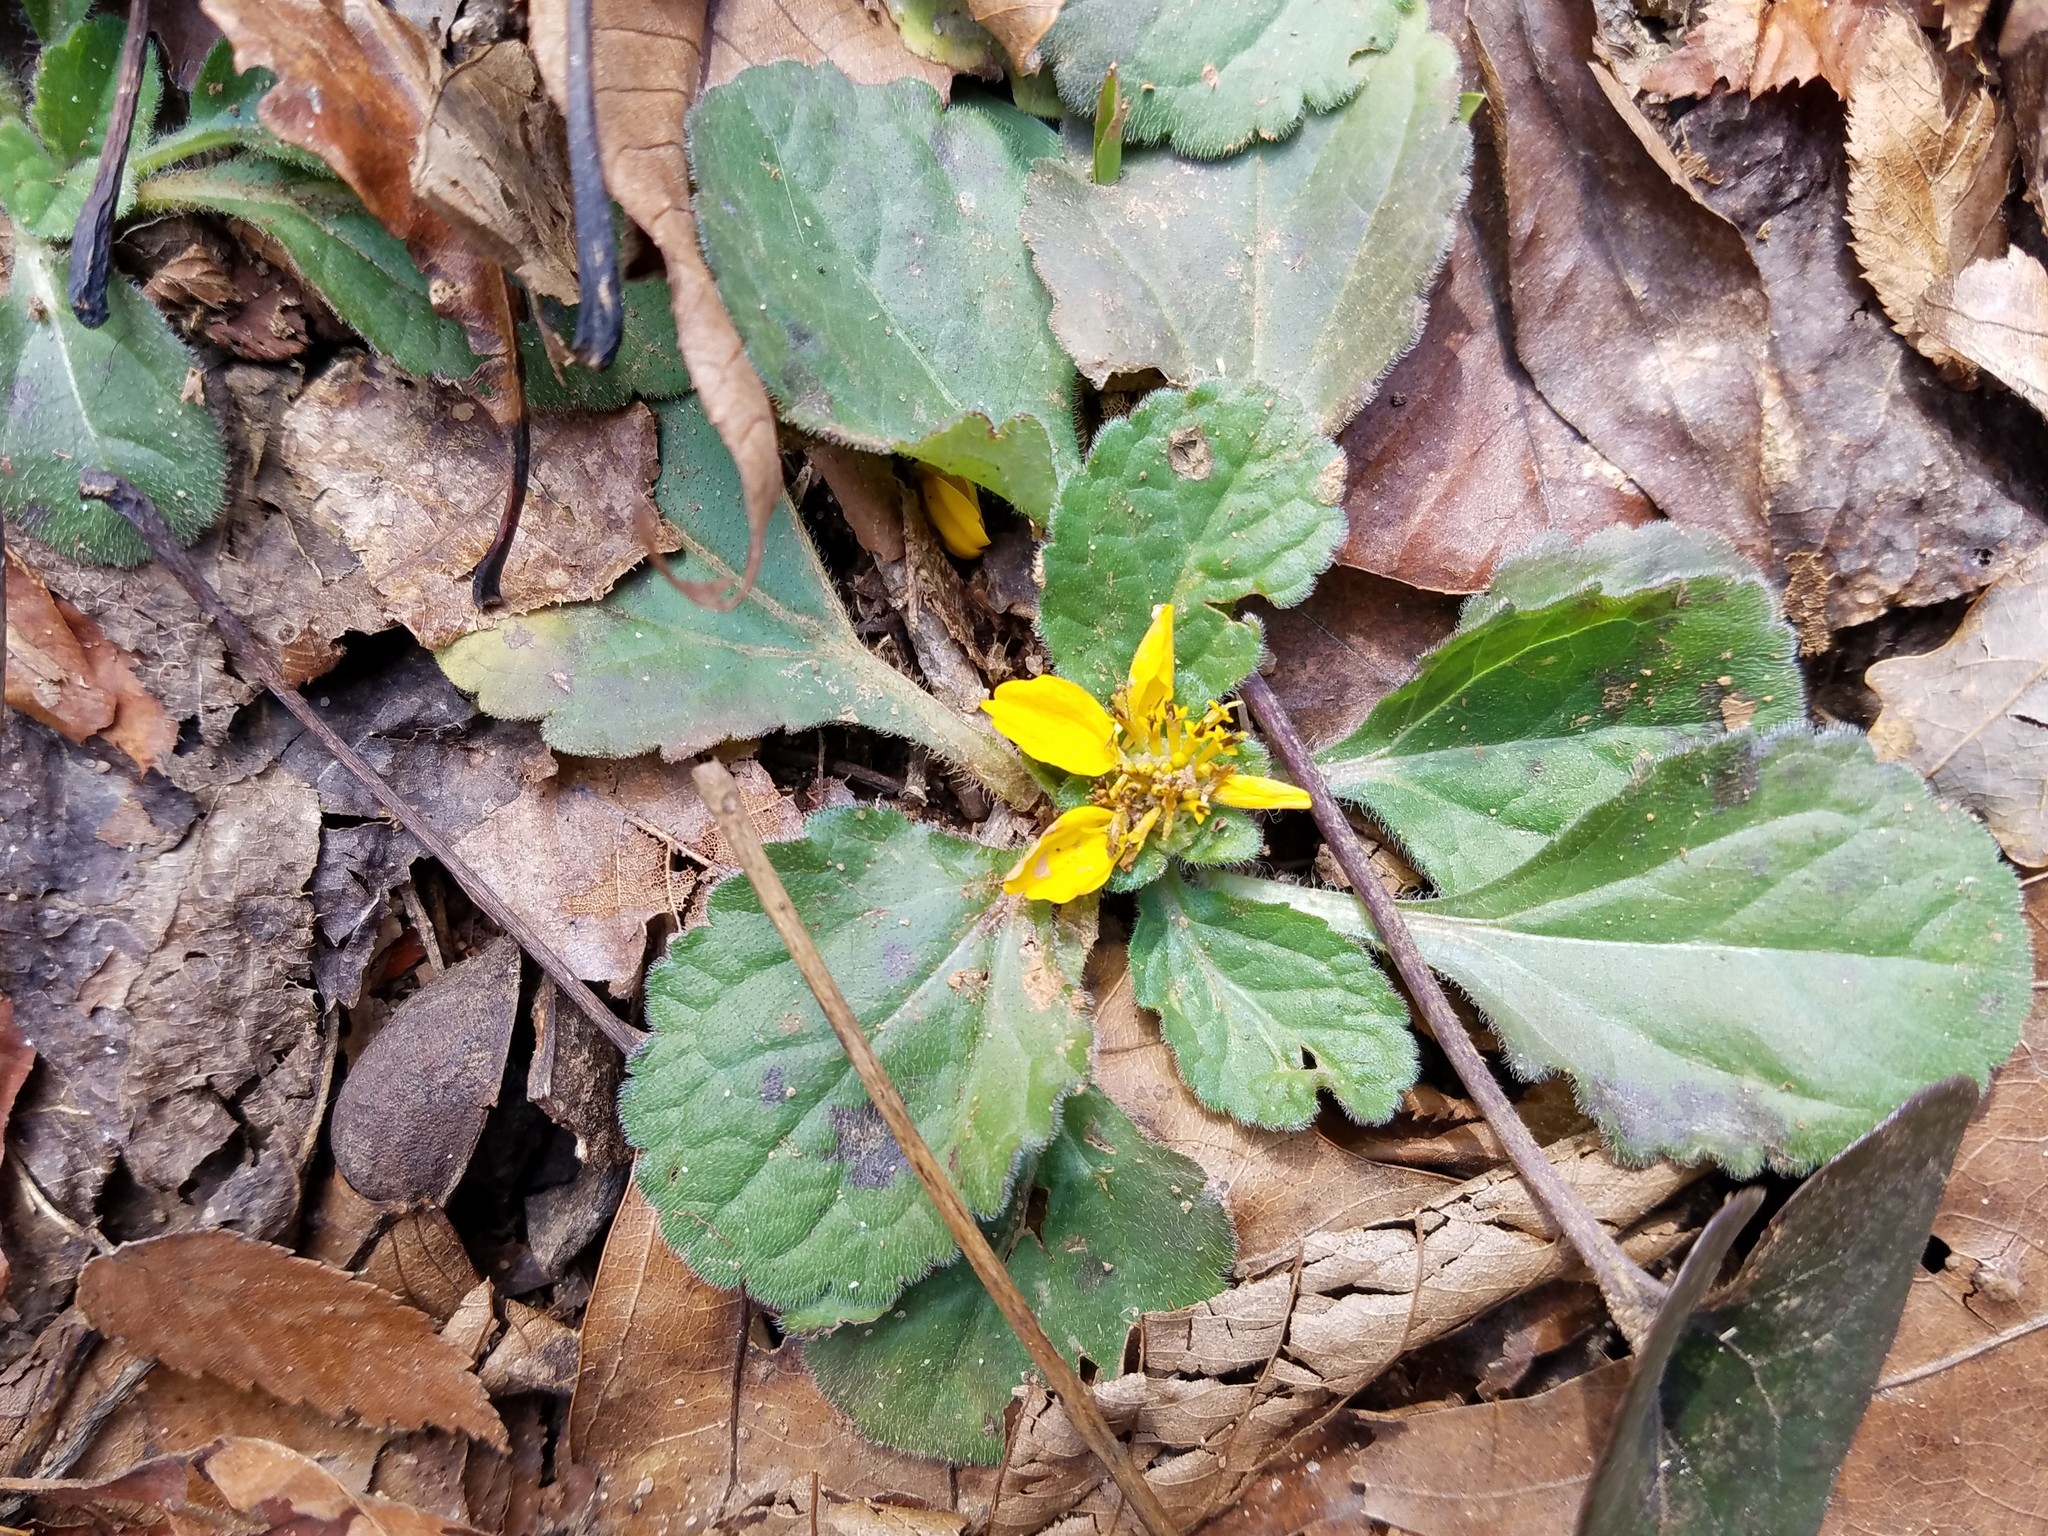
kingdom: Plantae
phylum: Tracheophyta
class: Magnoliopsida
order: Asterales
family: Asteraceae
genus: Chrysogonum
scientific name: Chrysogonum virginianum
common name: Golden-knee
